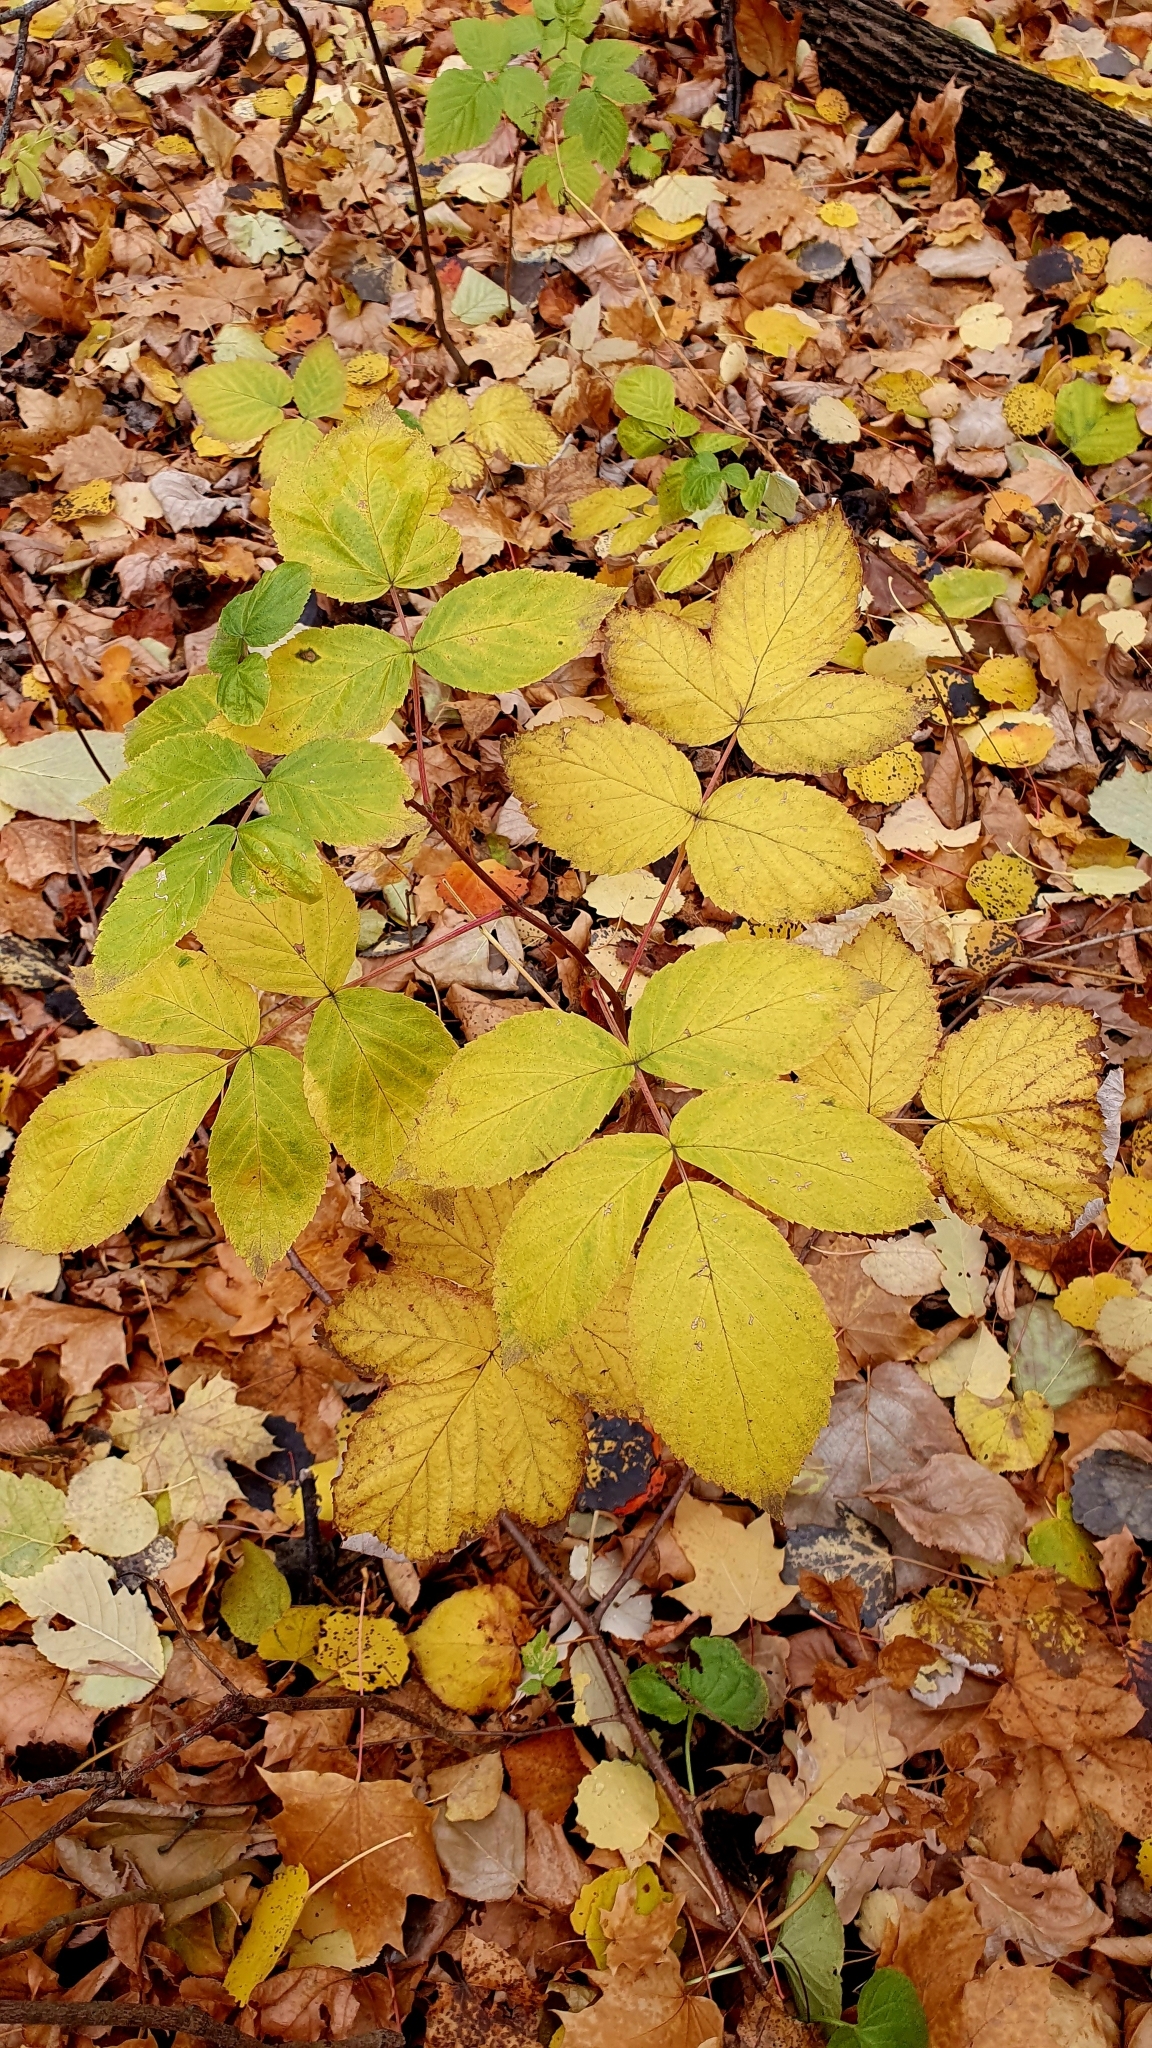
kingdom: Plantae
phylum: Tracheophyta
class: Magnoliopsida
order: Rosales
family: Rosaceae
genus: Rubus
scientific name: Rubus idaeus
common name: Raspberry
